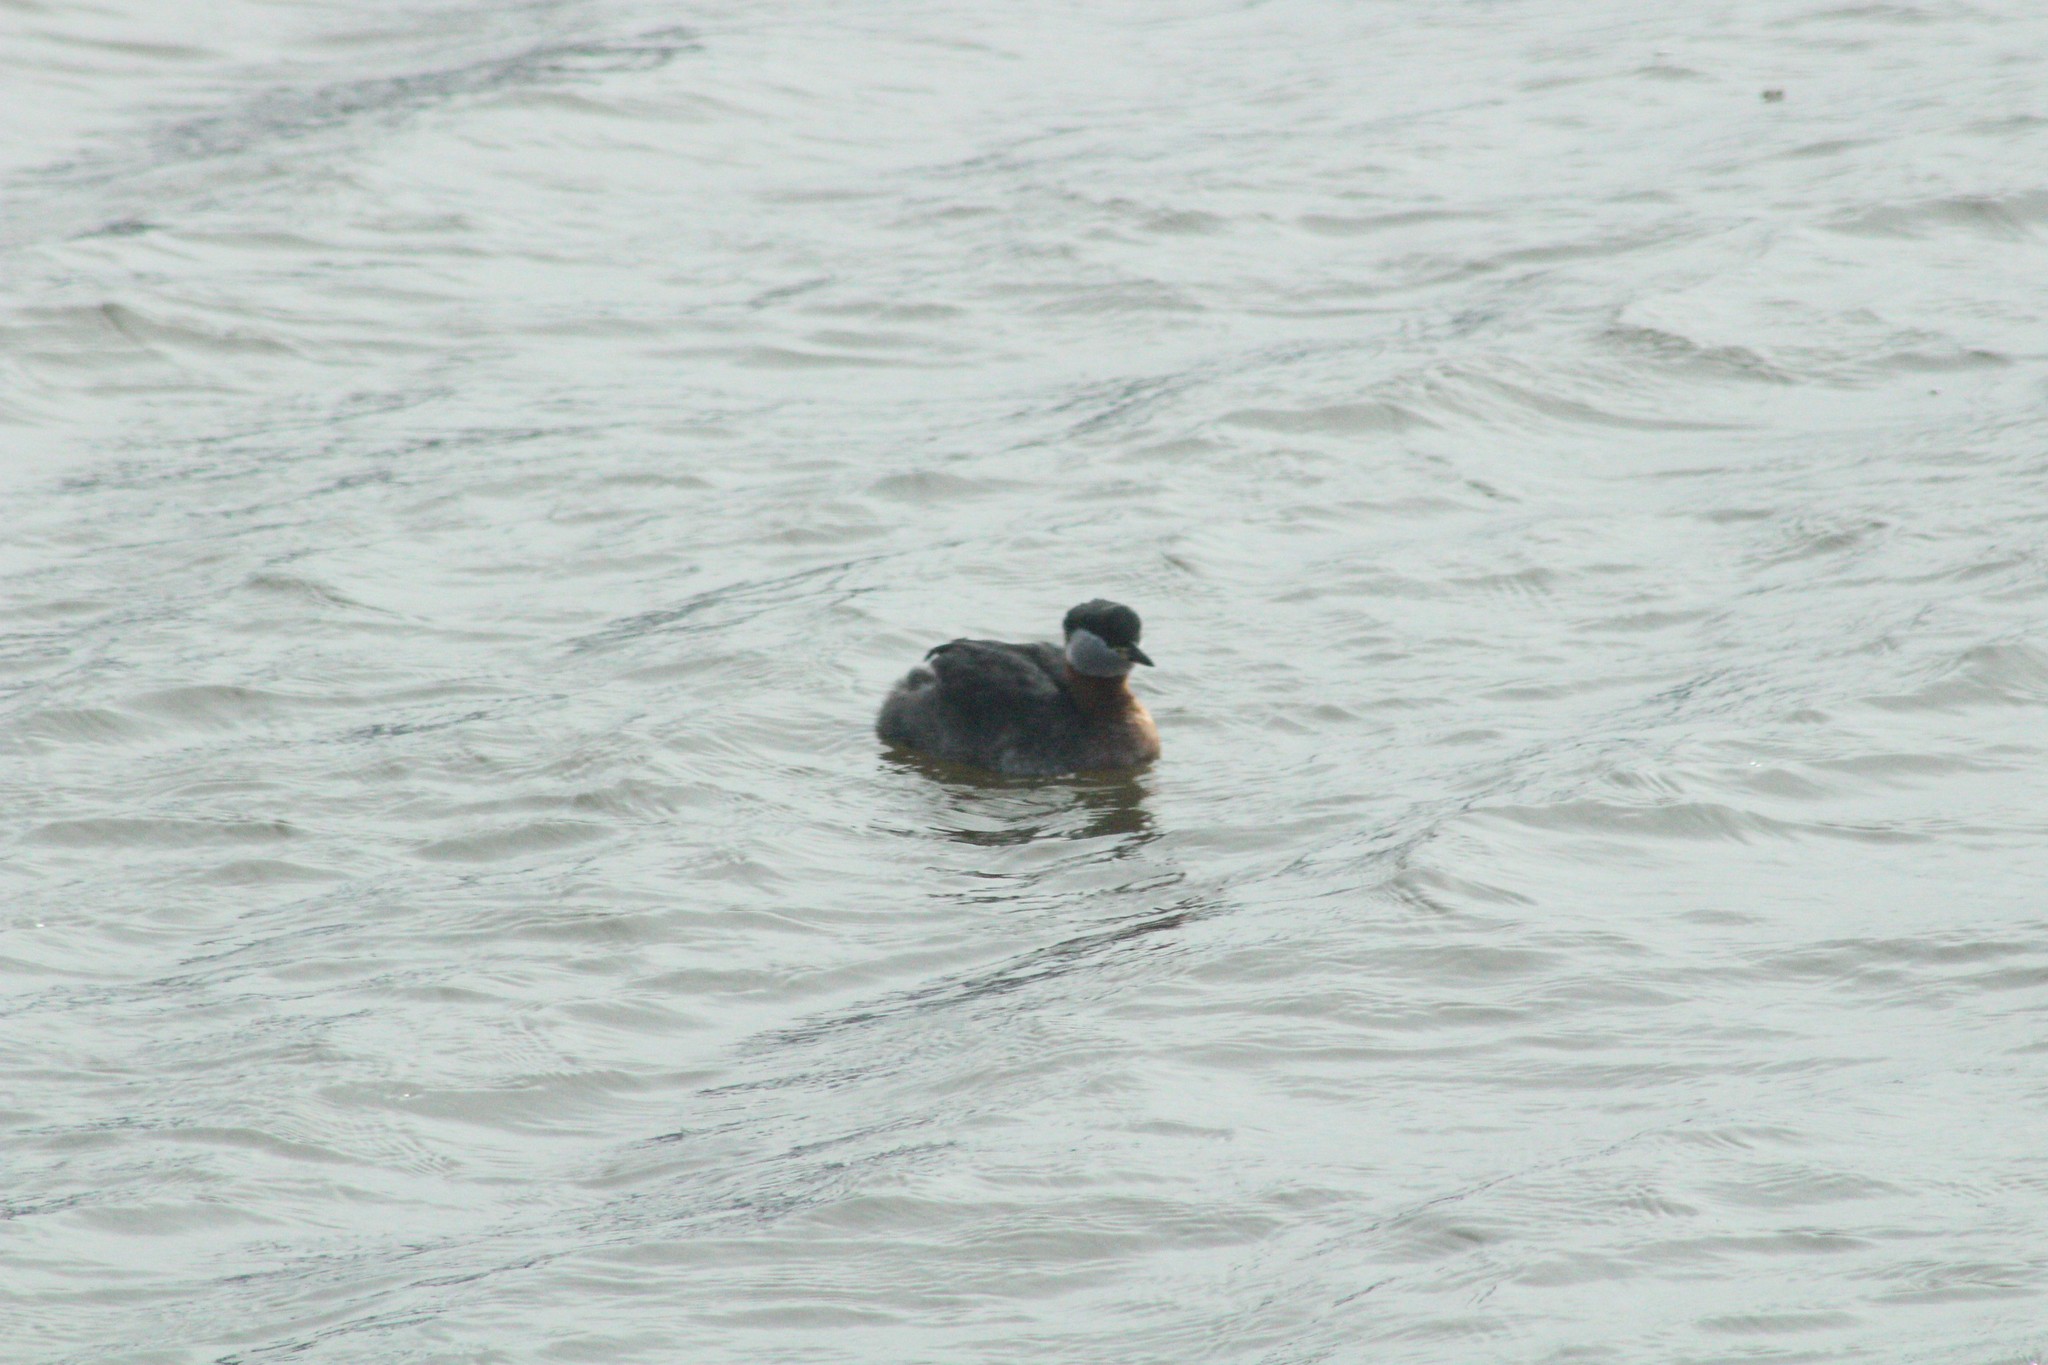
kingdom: Animalia
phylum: Chordata
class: Aves
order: Podicipediformes
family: Podicipedidae
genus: Podiceps
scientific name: Podiceps grisegena
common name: Red-necked grebe
